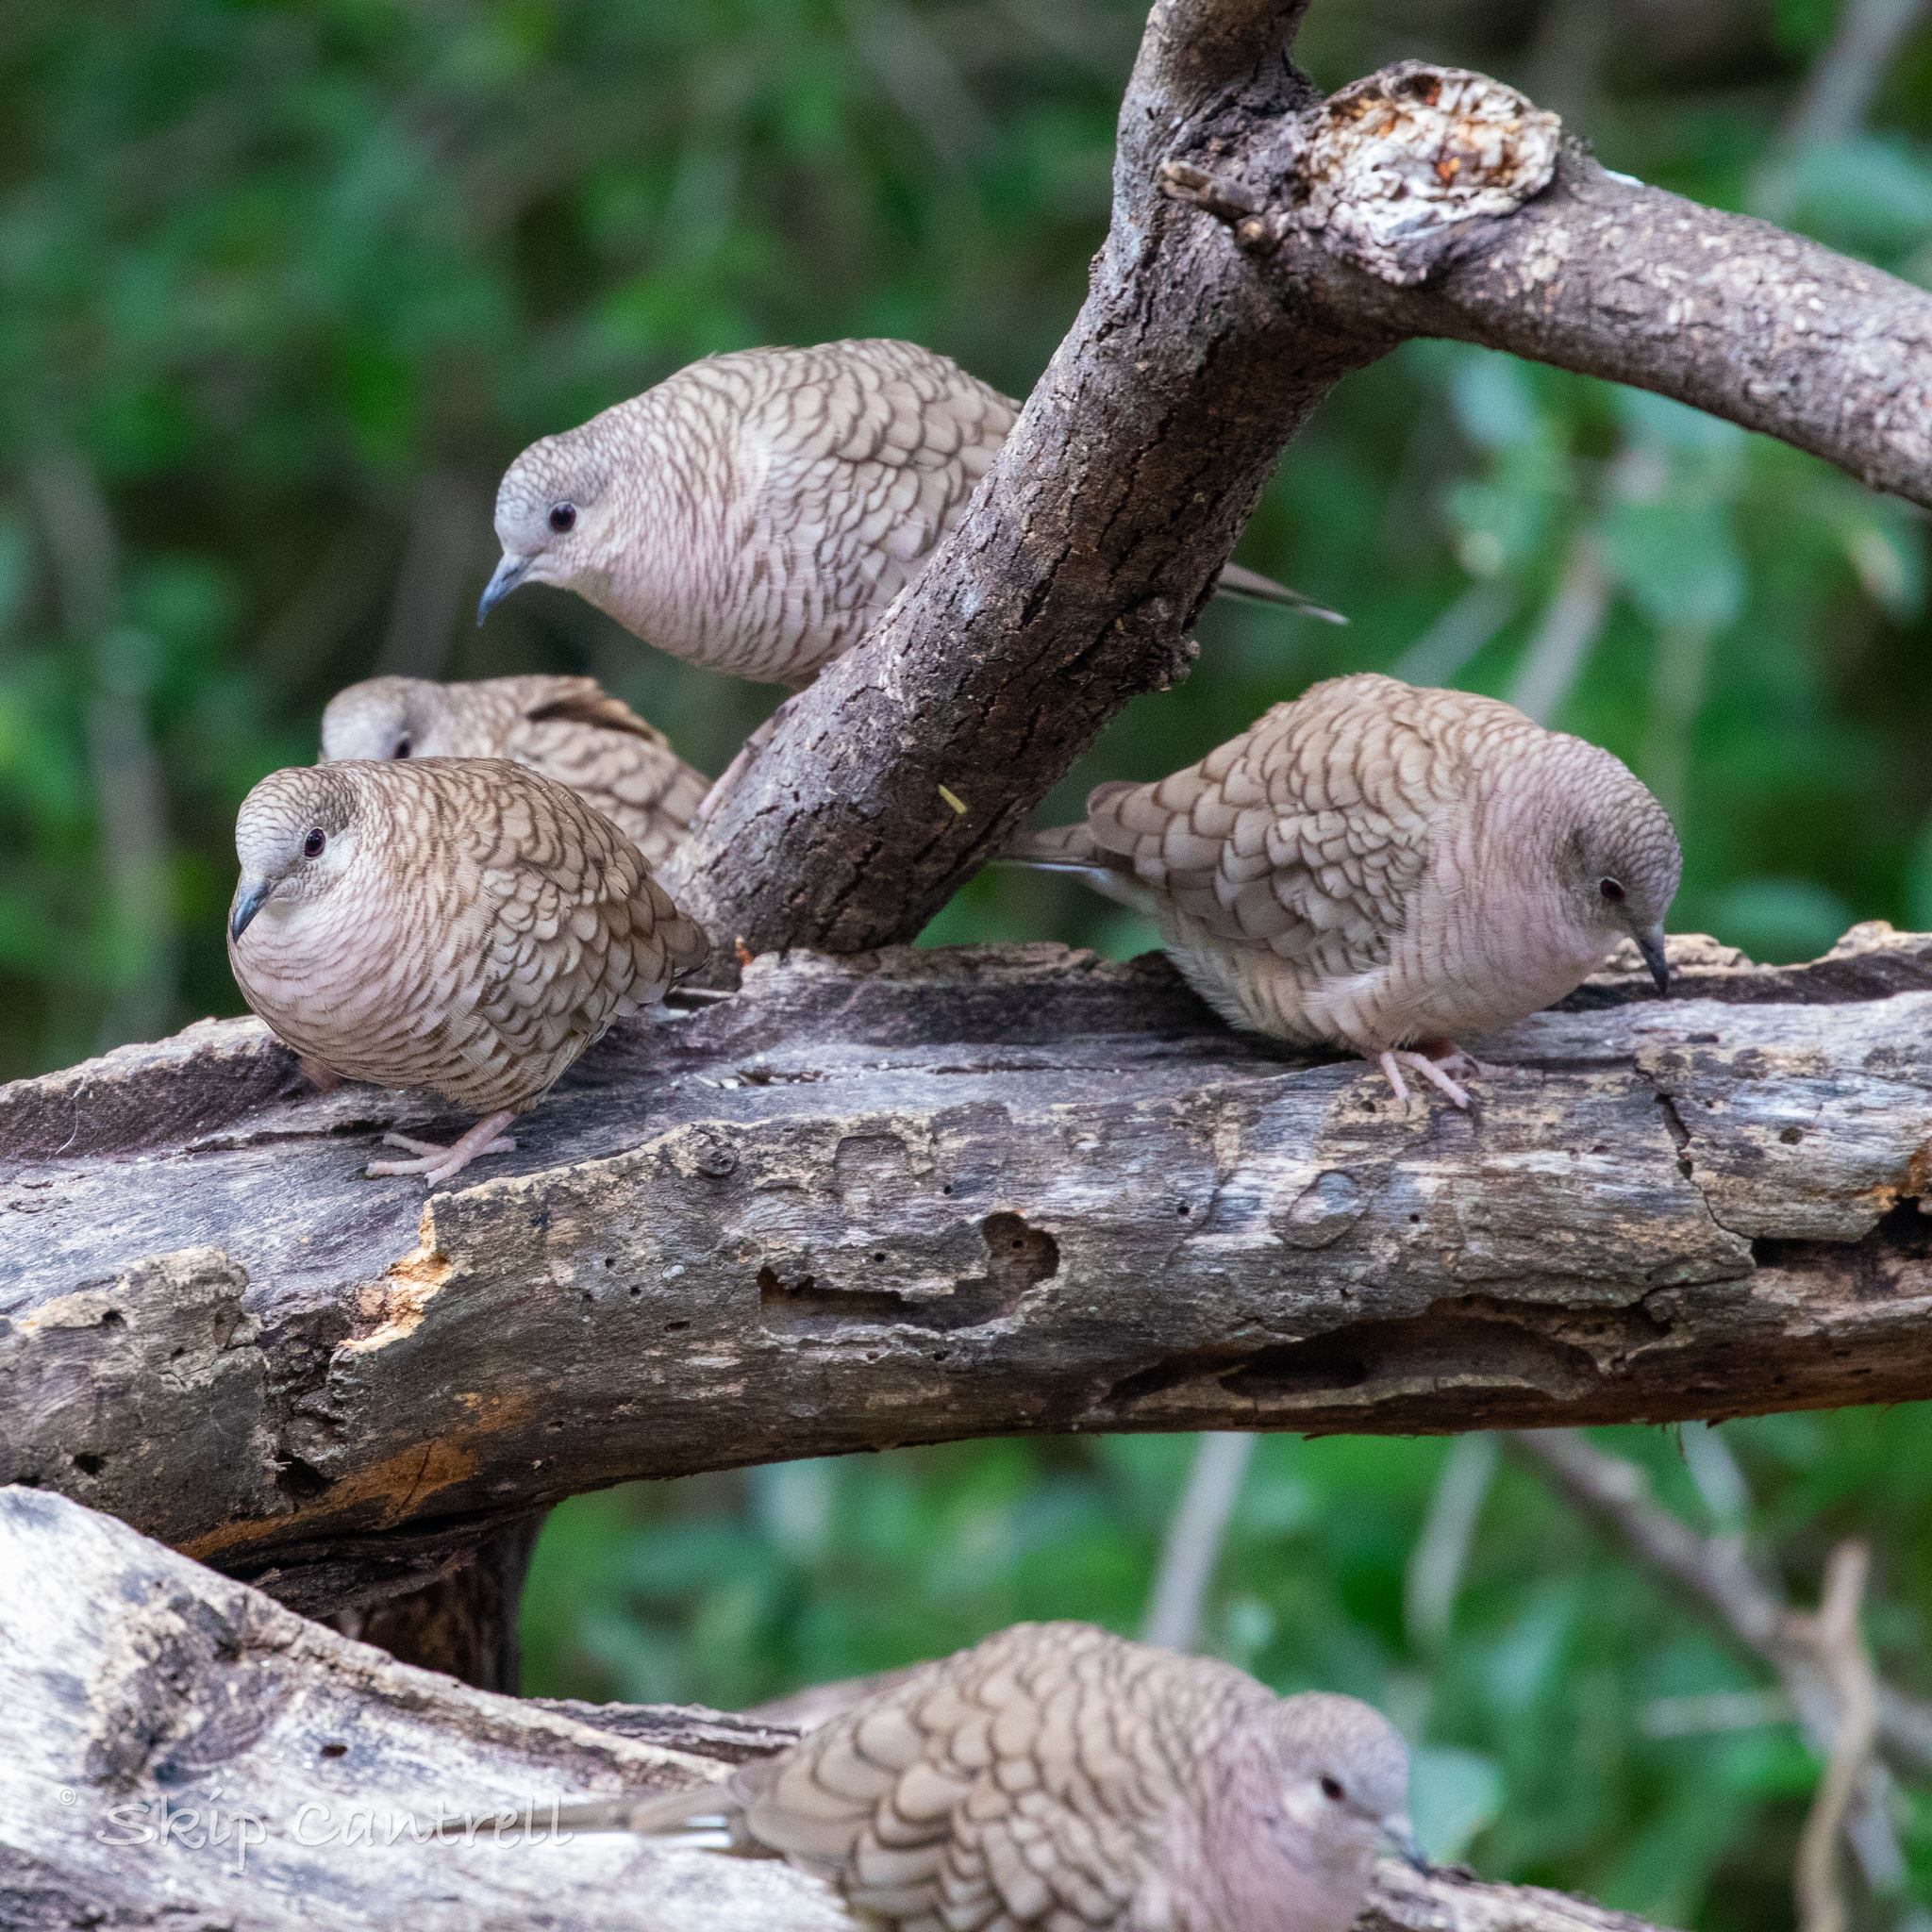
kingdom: Animalia
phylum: Chordata
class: Aves
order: Columbiformes
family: Columbidae
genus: Columbina
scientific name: Columbina inca
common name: Inca dove
